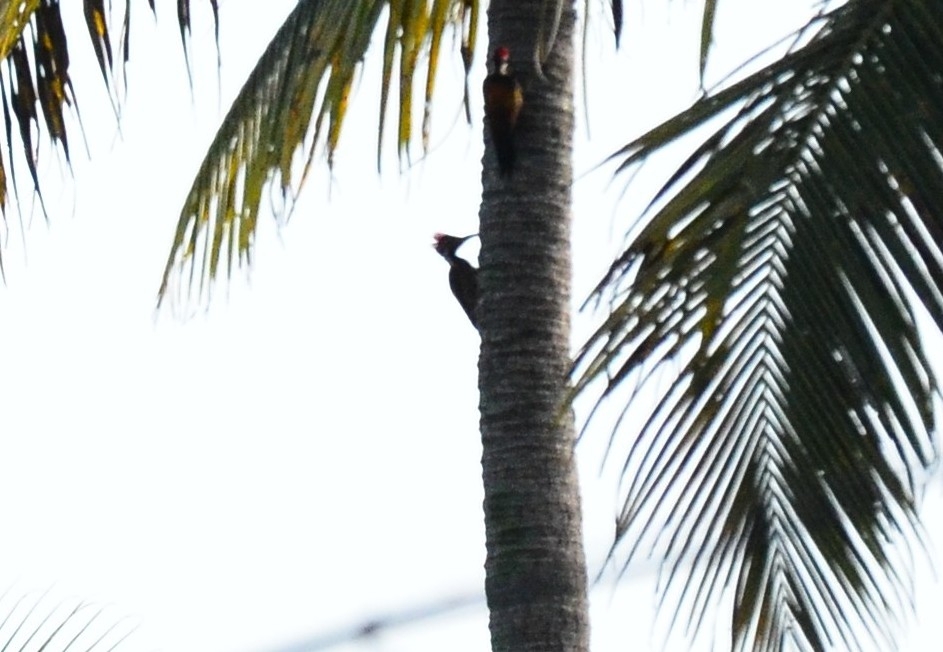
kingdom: Animalia
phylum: Chordata
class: Aves
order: Piciformes
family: Picidae
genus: Dinopium
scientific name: Dinopium benghalense
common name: Black-rumped flameback
